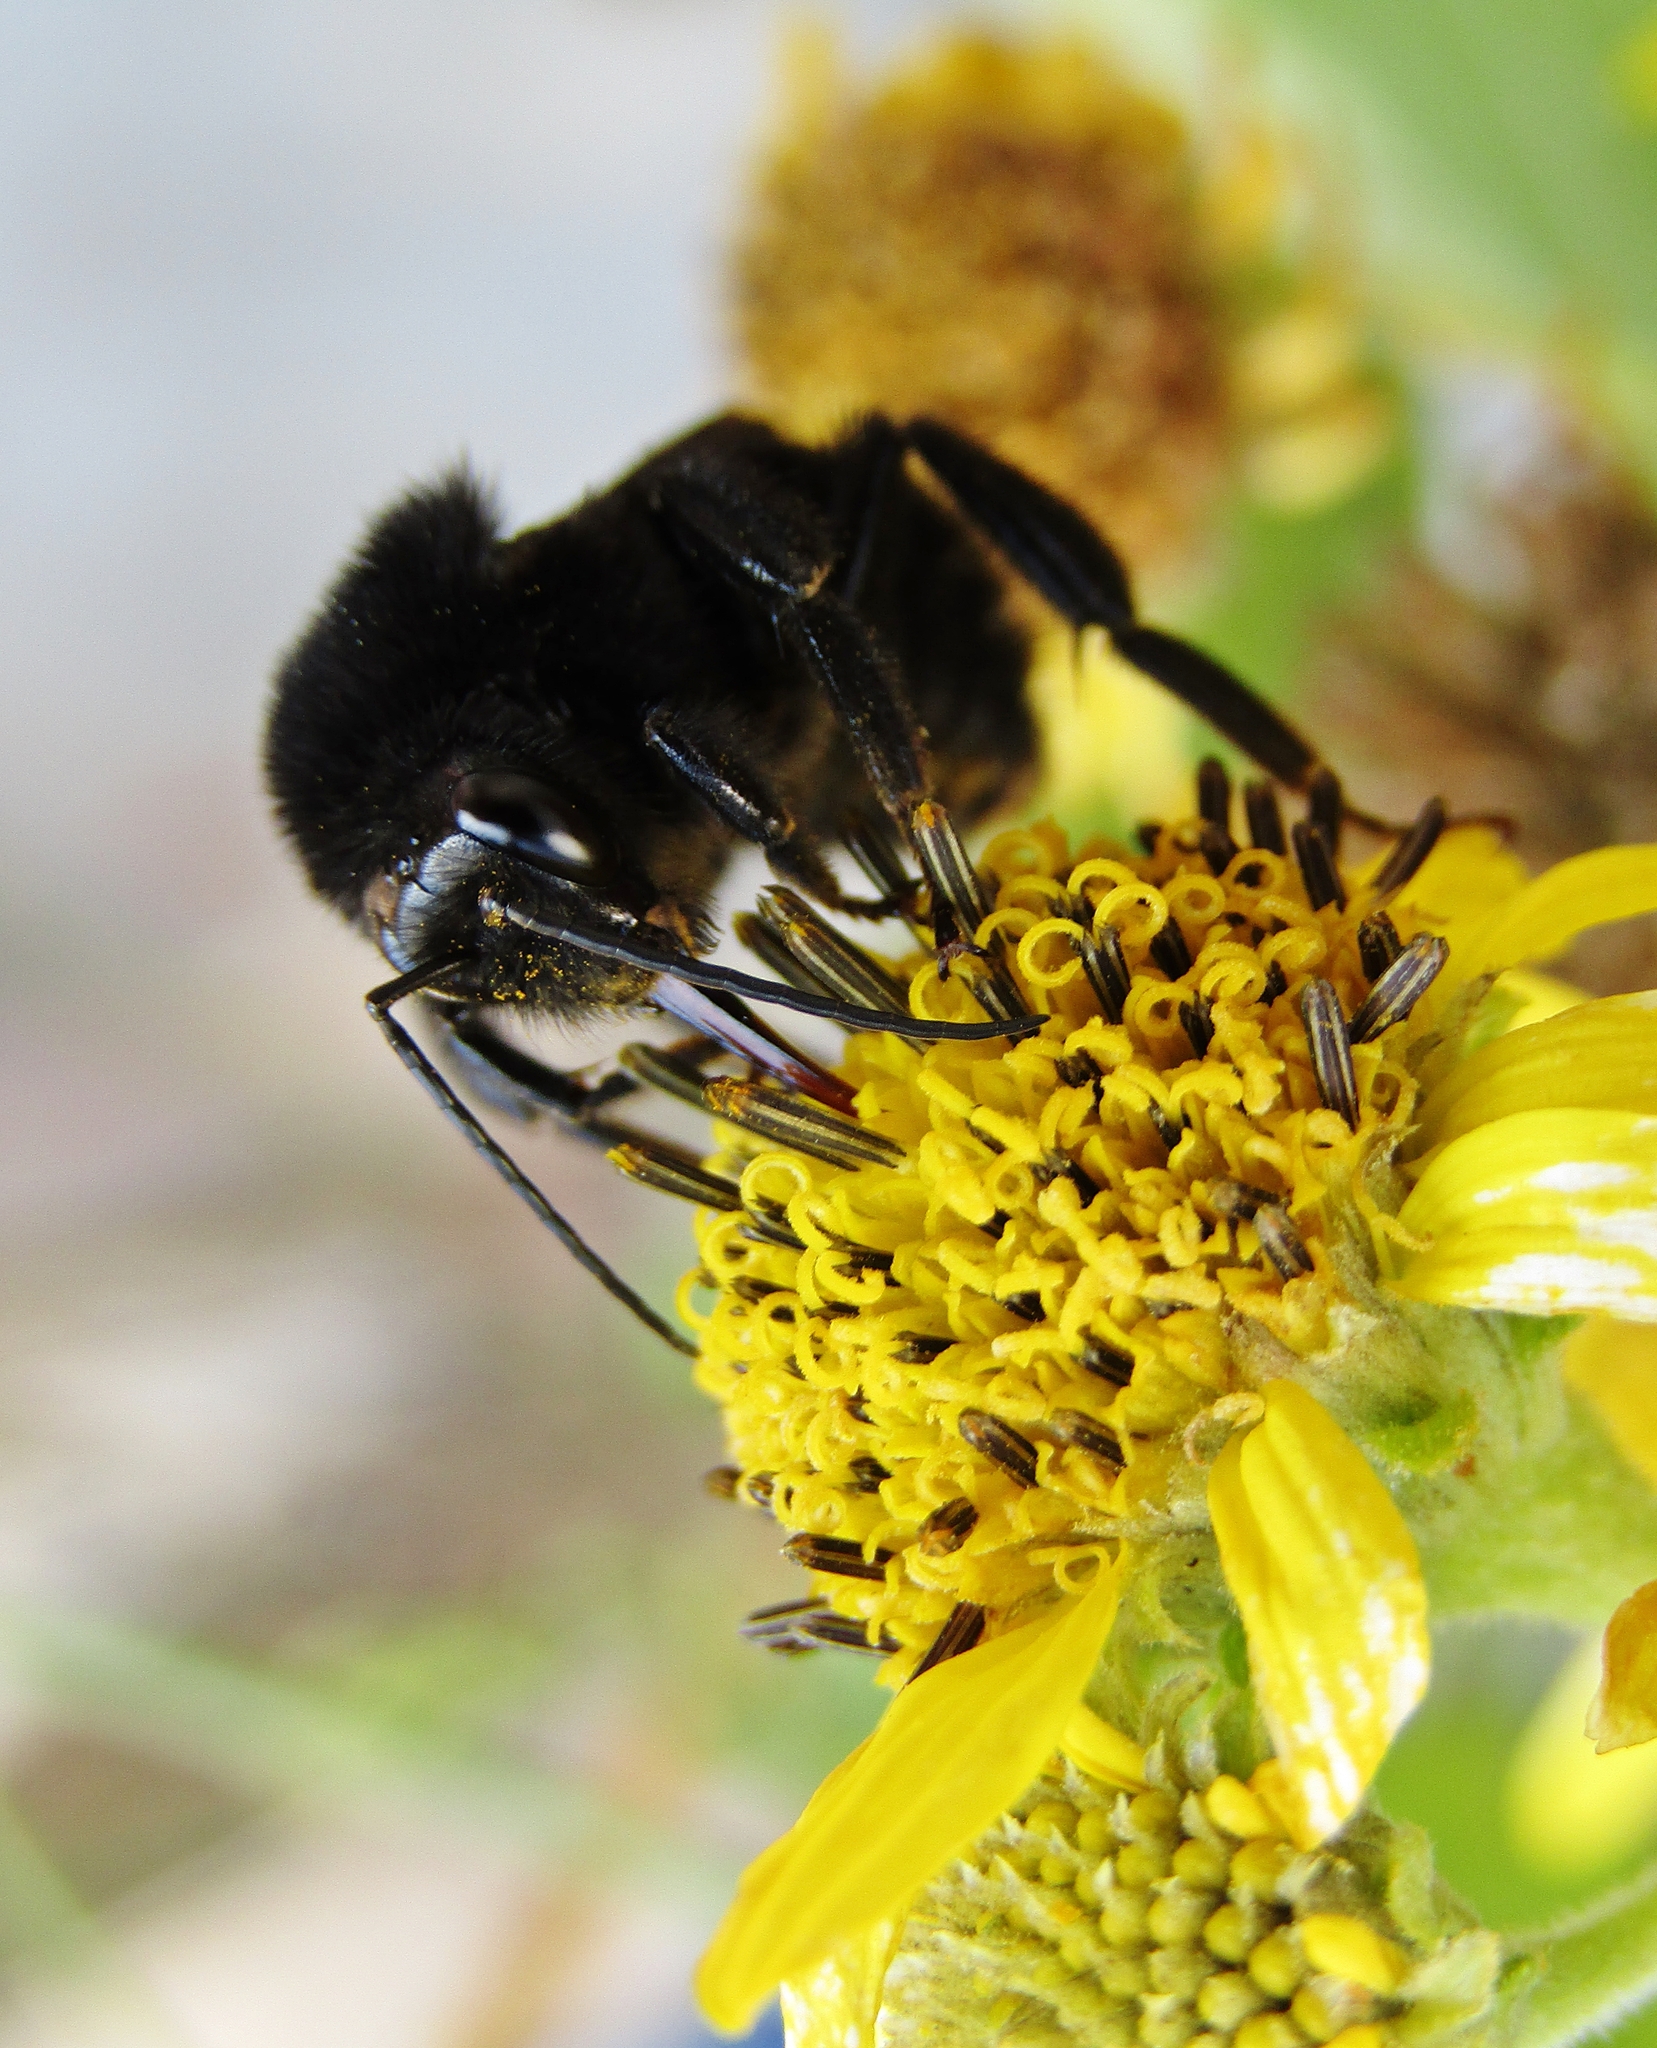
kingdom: Animalia
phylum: Arthropoda
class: Insecta
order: Hymenoptera
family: Apidae
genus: Bombus
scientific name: Bombus pauloensis
